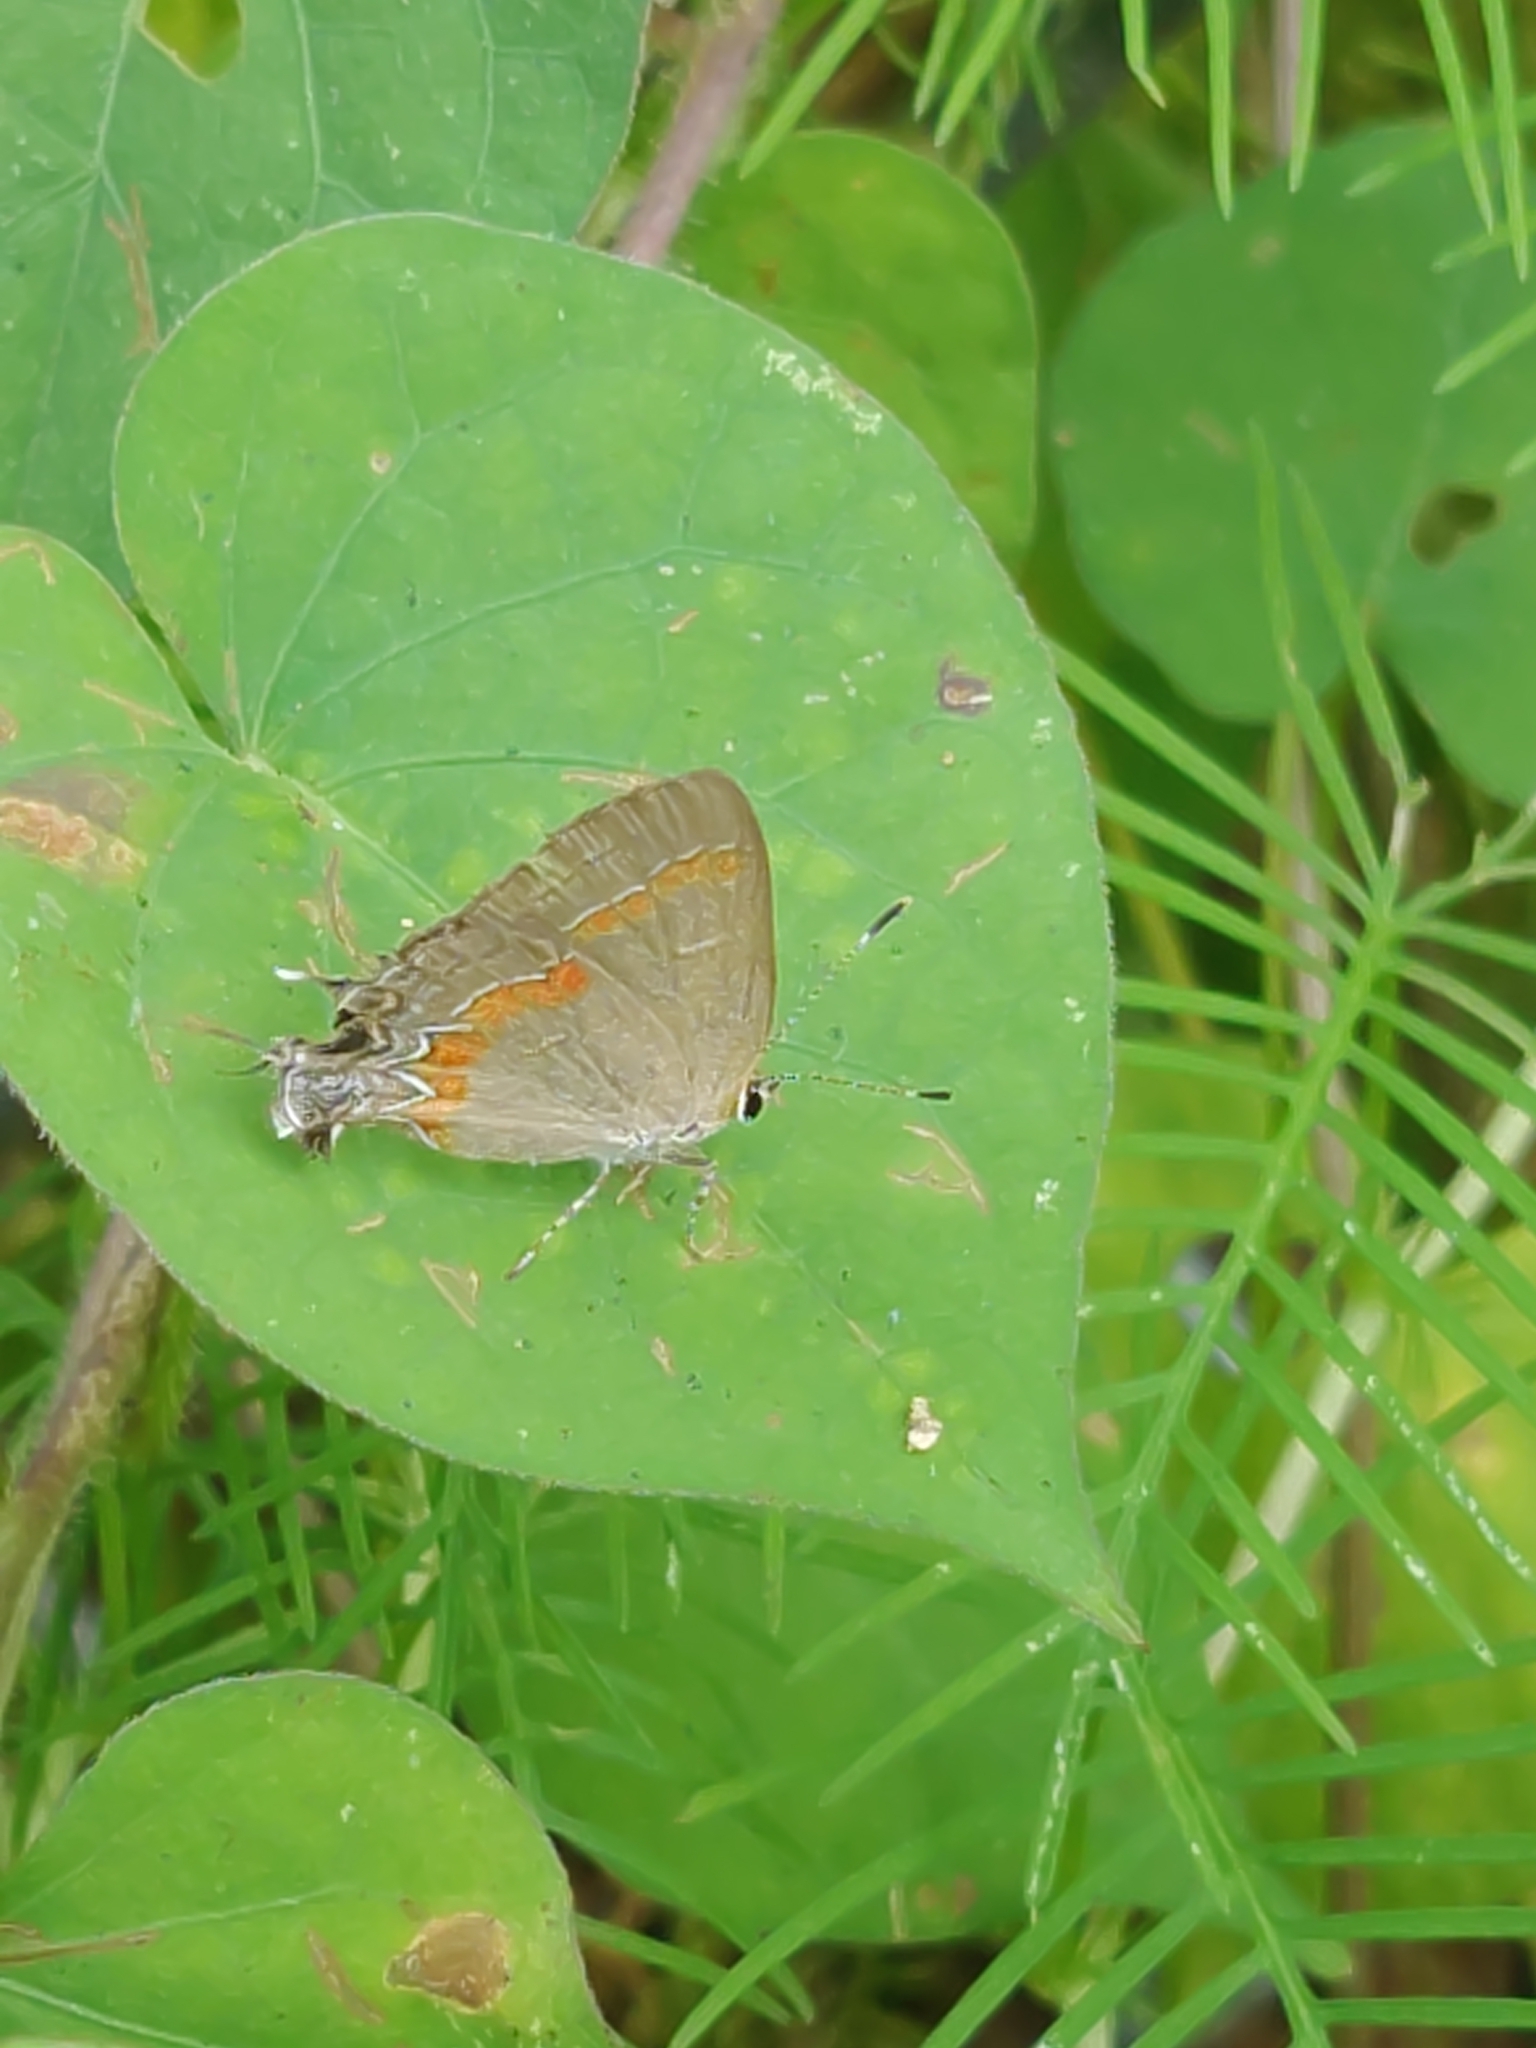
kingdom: Animalia
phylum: Arthropoda
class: Insecta
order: Lepidoptera
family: Lycaenidae
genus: Calycopis
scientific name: Calycopis cecrops
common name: Red-banded hairstreak
